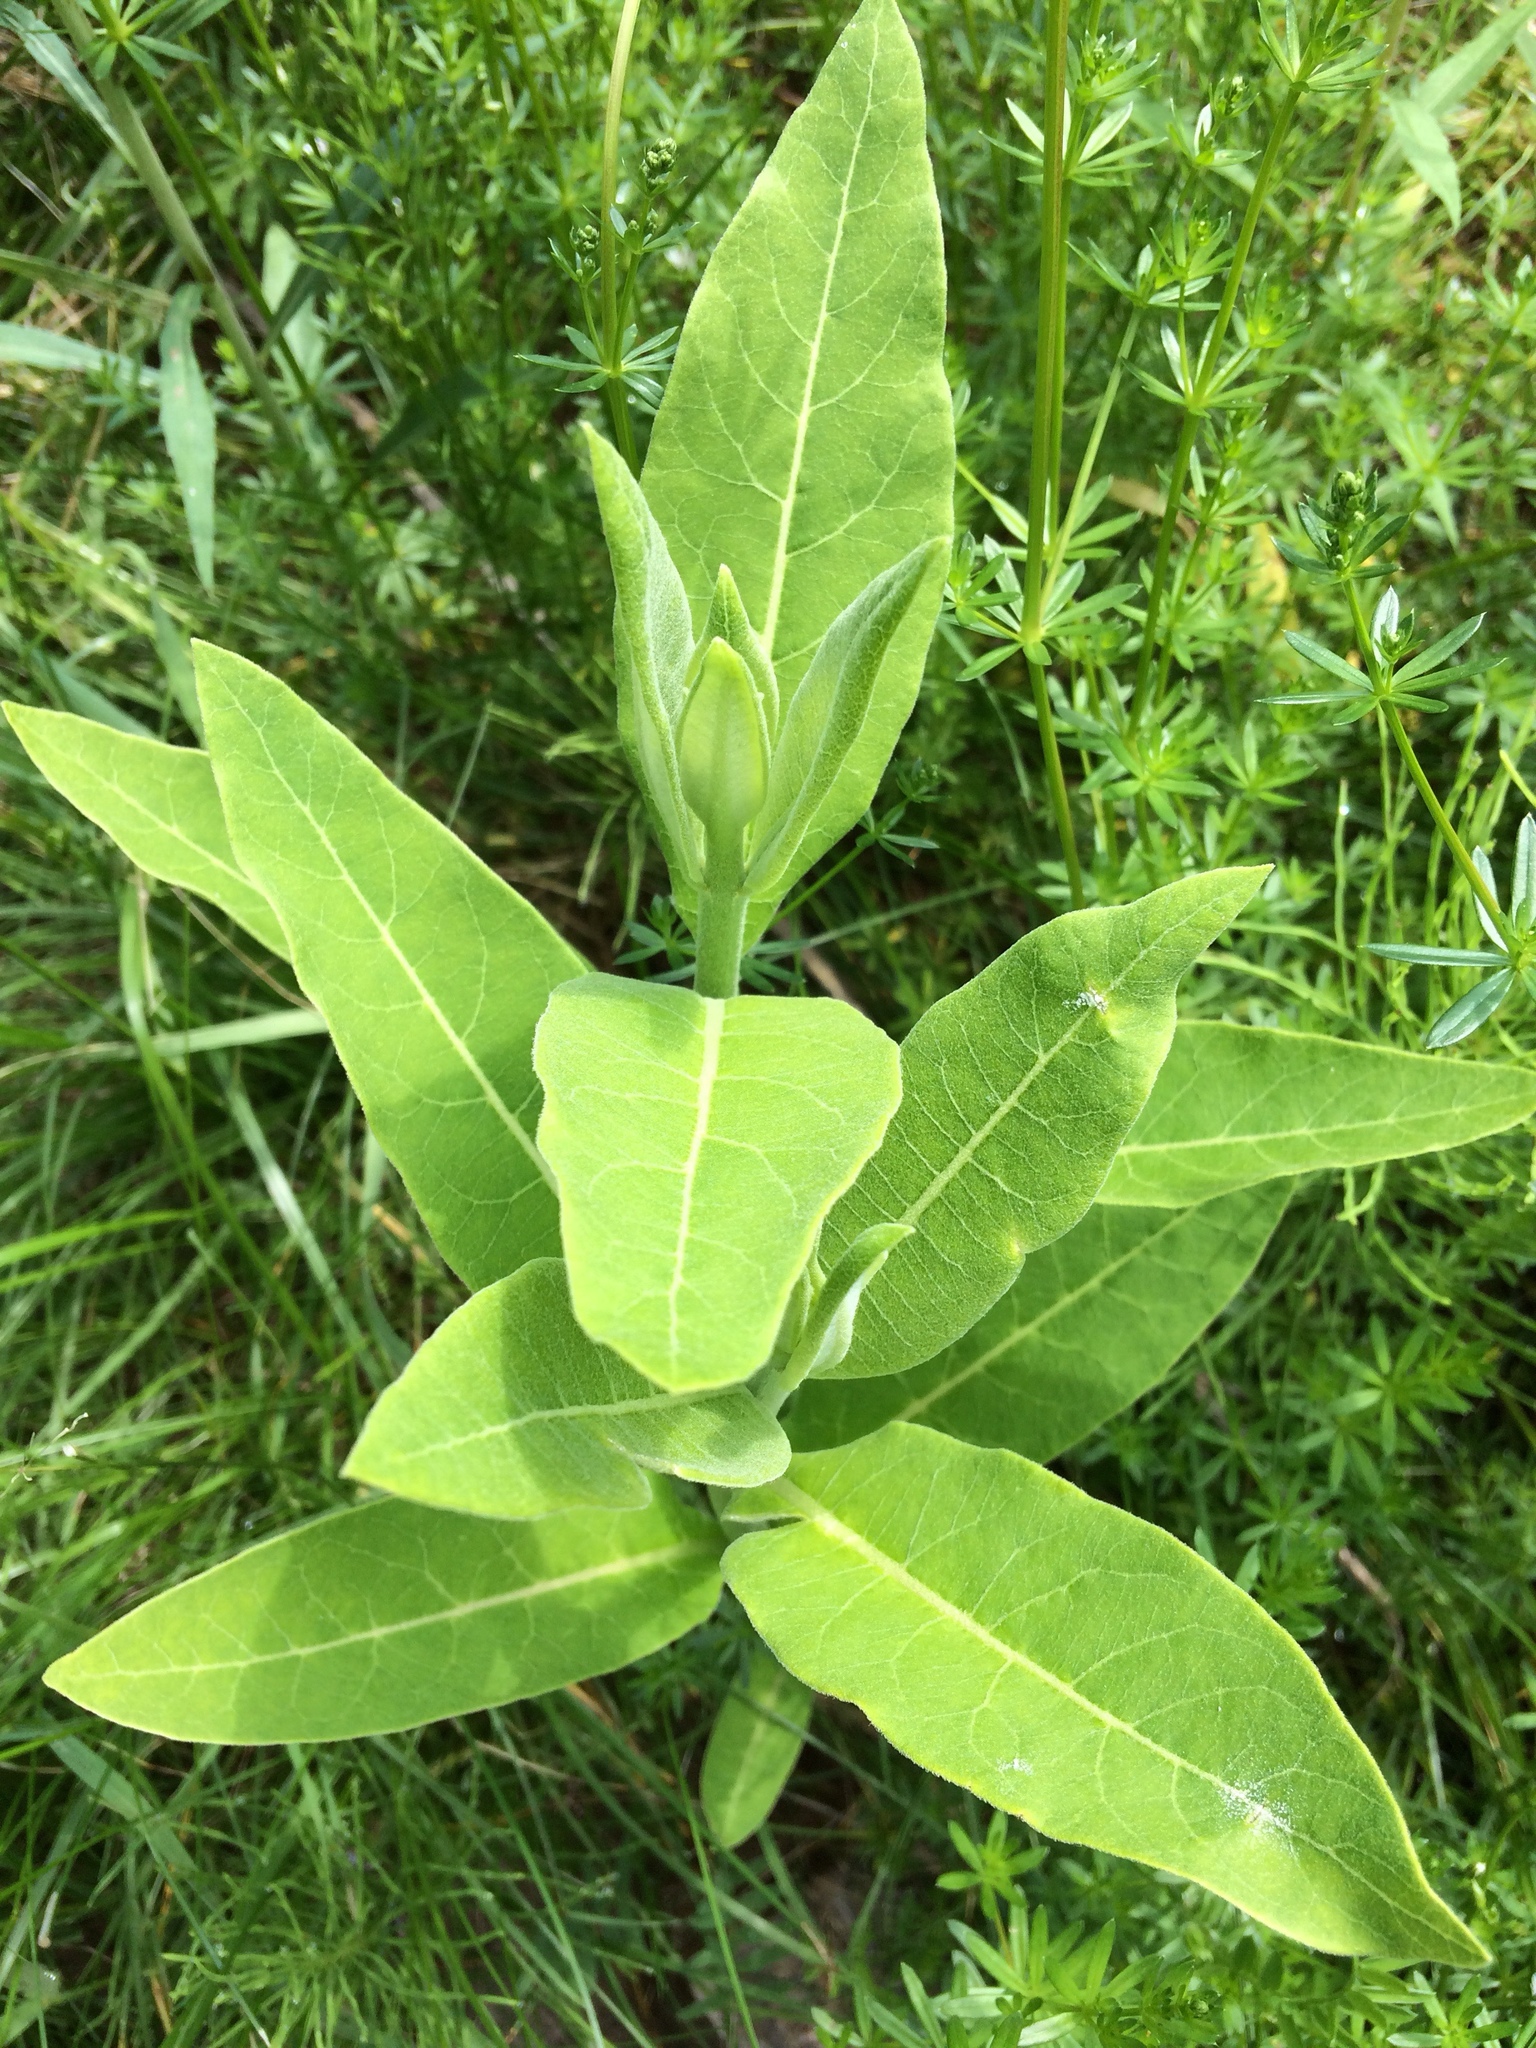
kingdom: Plantae
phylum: Tracheophyta
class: Magnoliopsida
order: Gentianales
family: Apocynaceae
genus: Asclepias
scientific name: Asclepias syriaca
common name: Common milkweed
